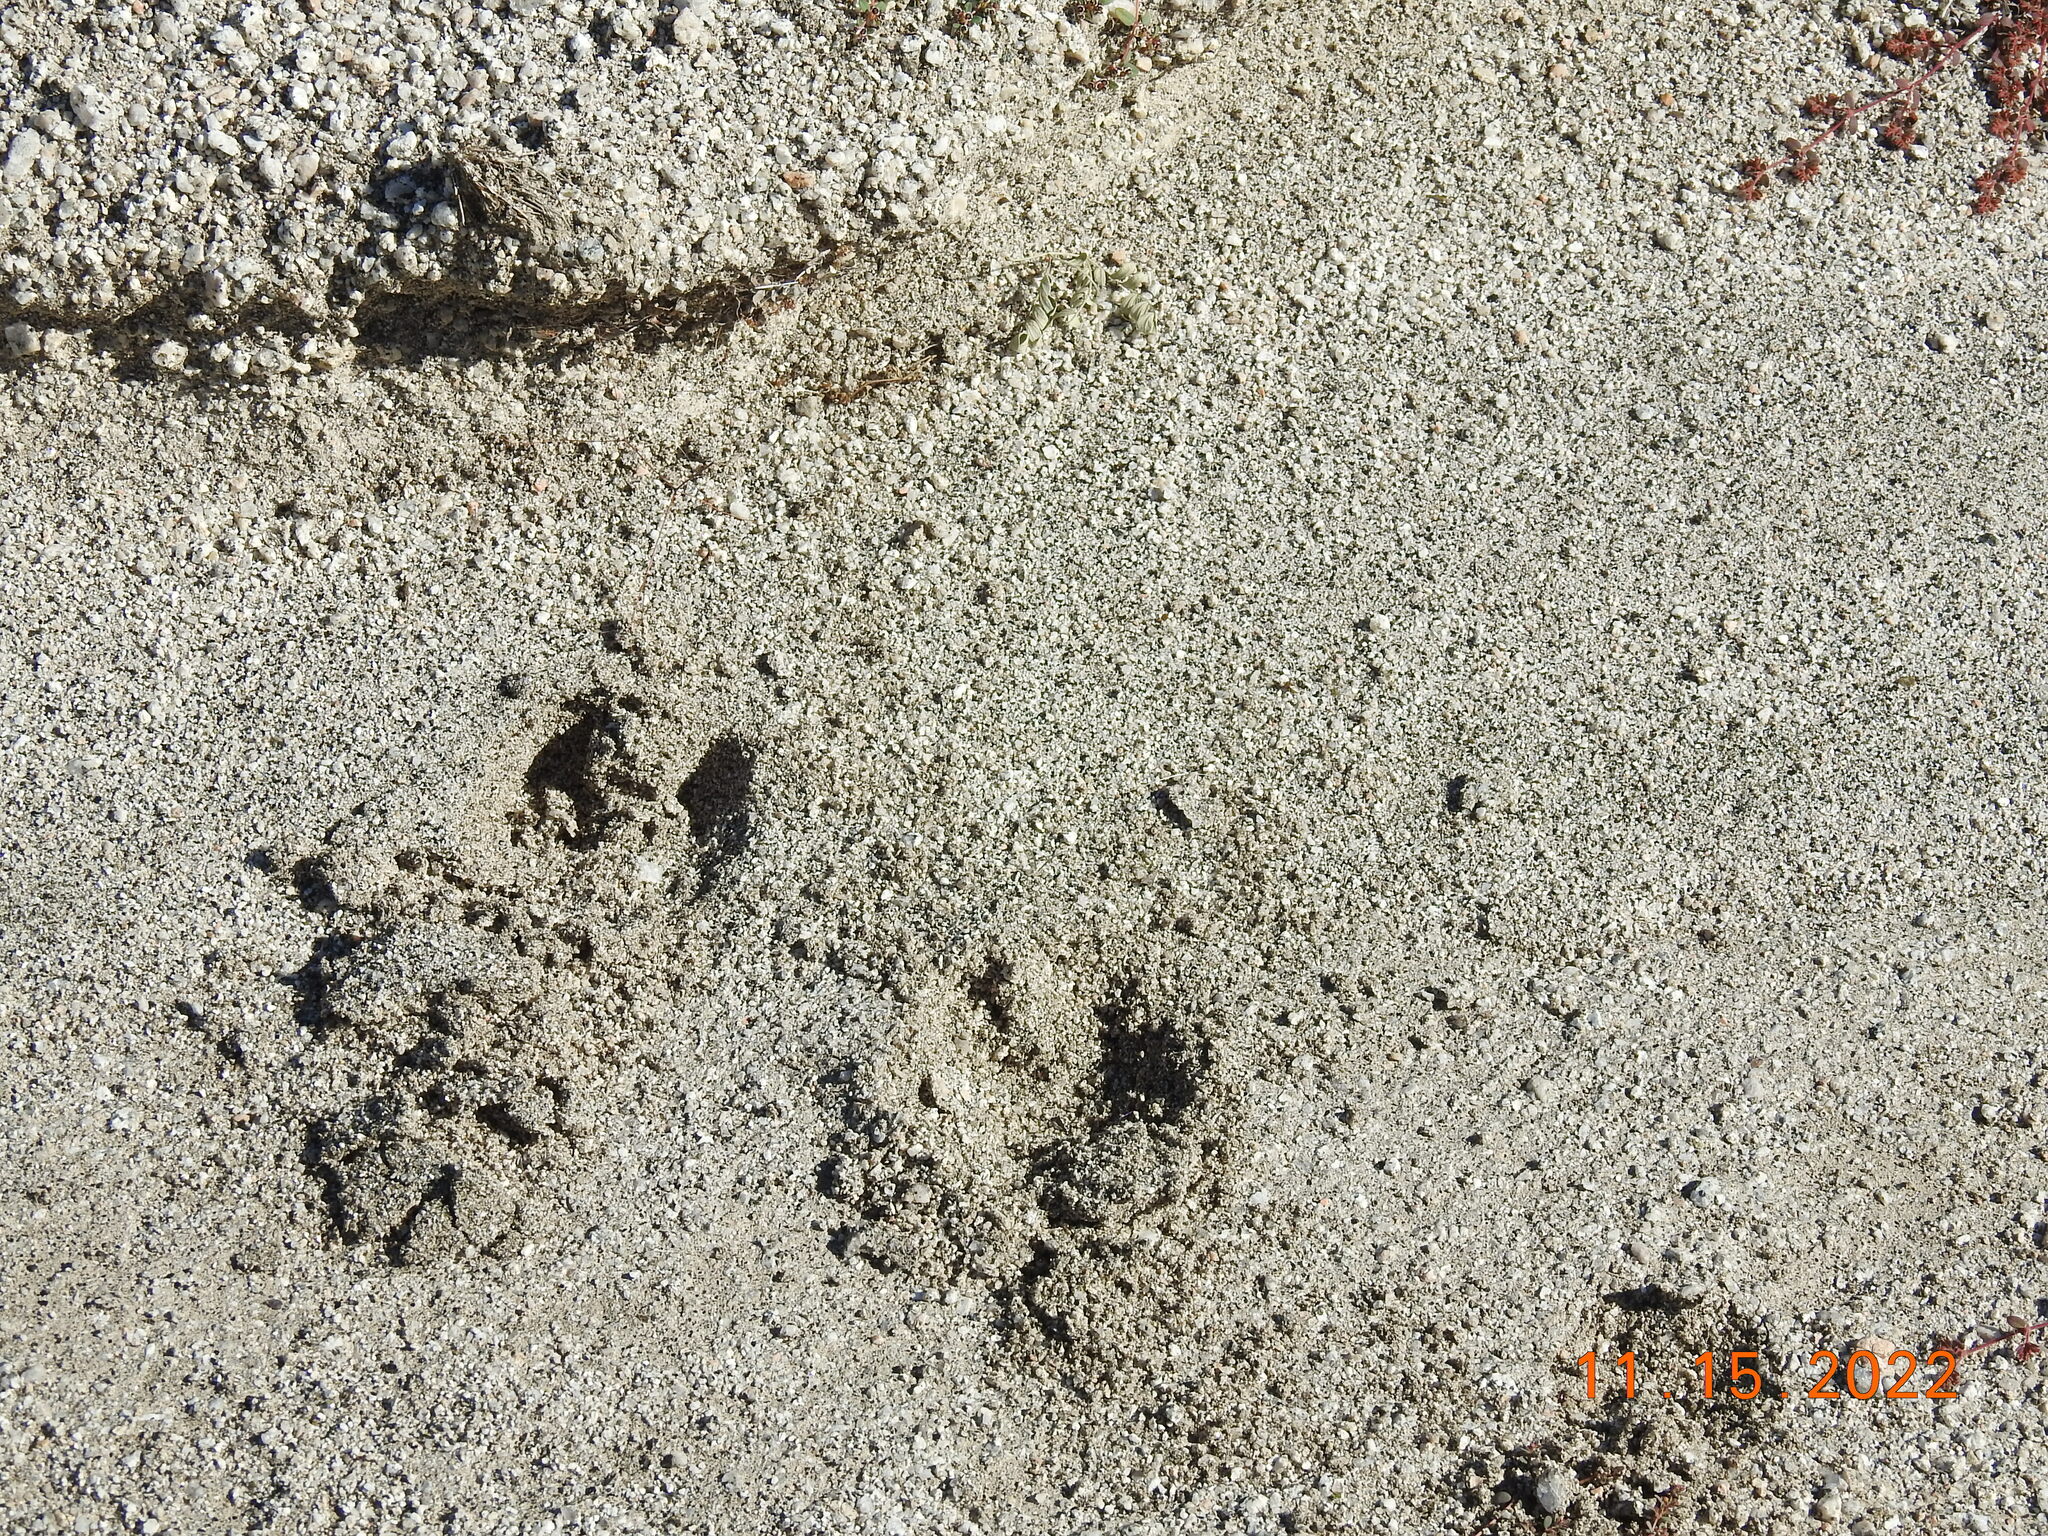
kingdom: Animalia
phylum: Chordata
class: Mammalia
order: Artiodactyla
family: Bovidae
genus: Ovis
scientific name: Ovis canadensis
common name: Bighorn sheep
